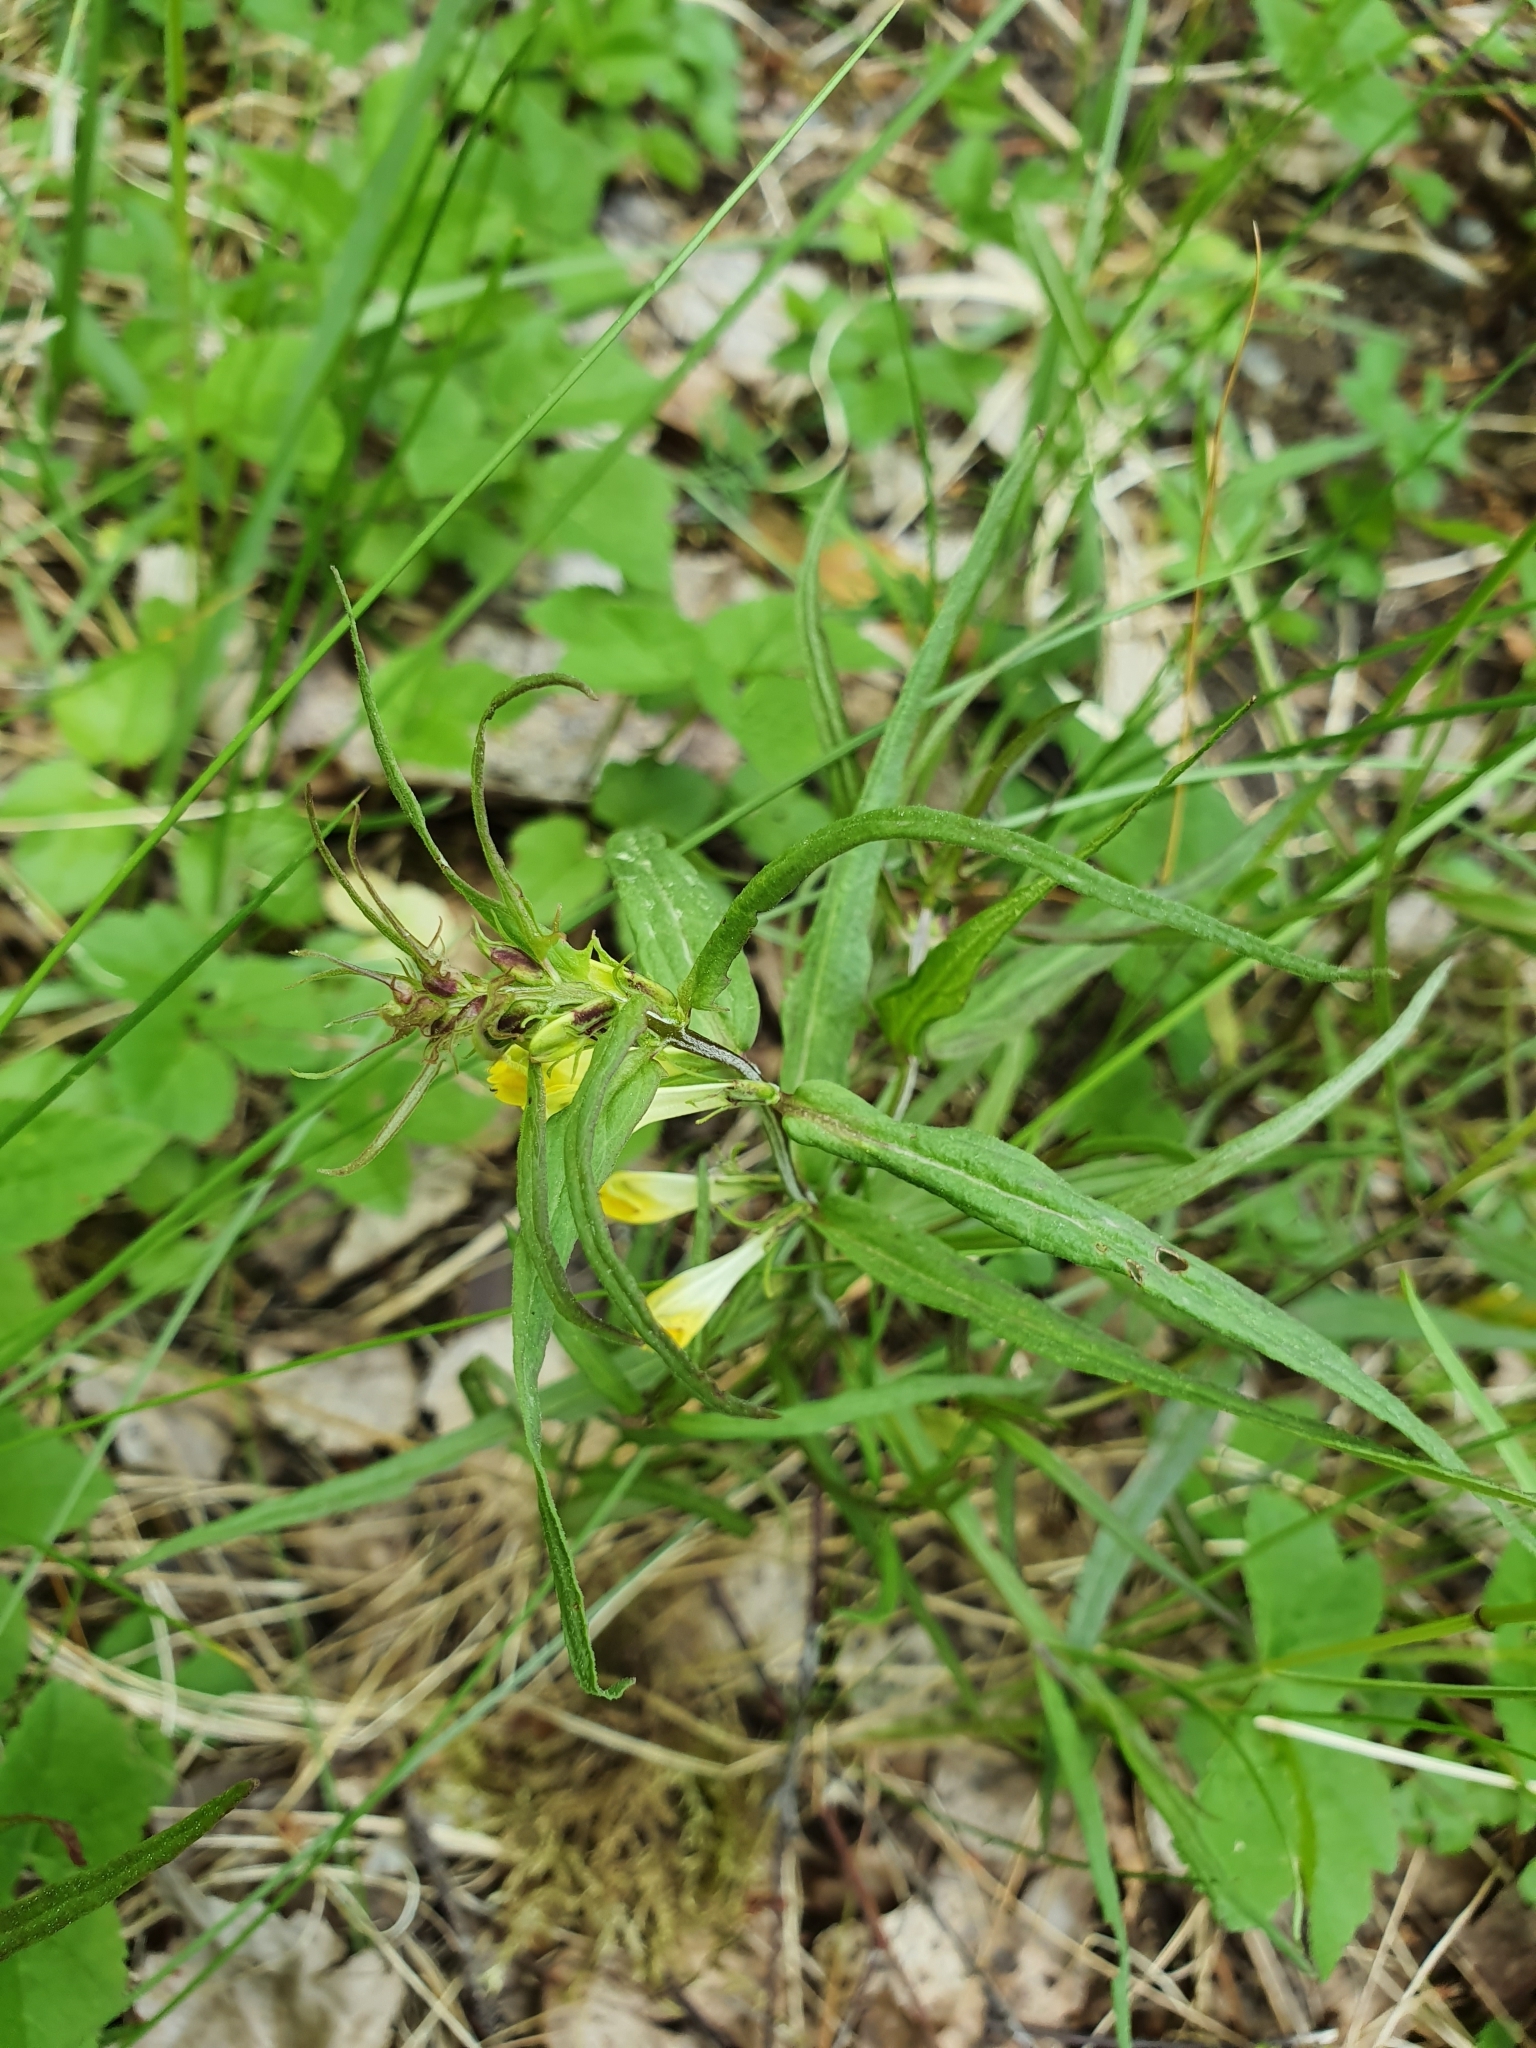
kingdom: Plantae
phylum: Tracheophyta
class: Magnoliopsida
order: Lamiales
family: Orobanchaceae
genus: Melampyrum
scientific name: Melampyrum pratense
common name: Common cow-wheat
